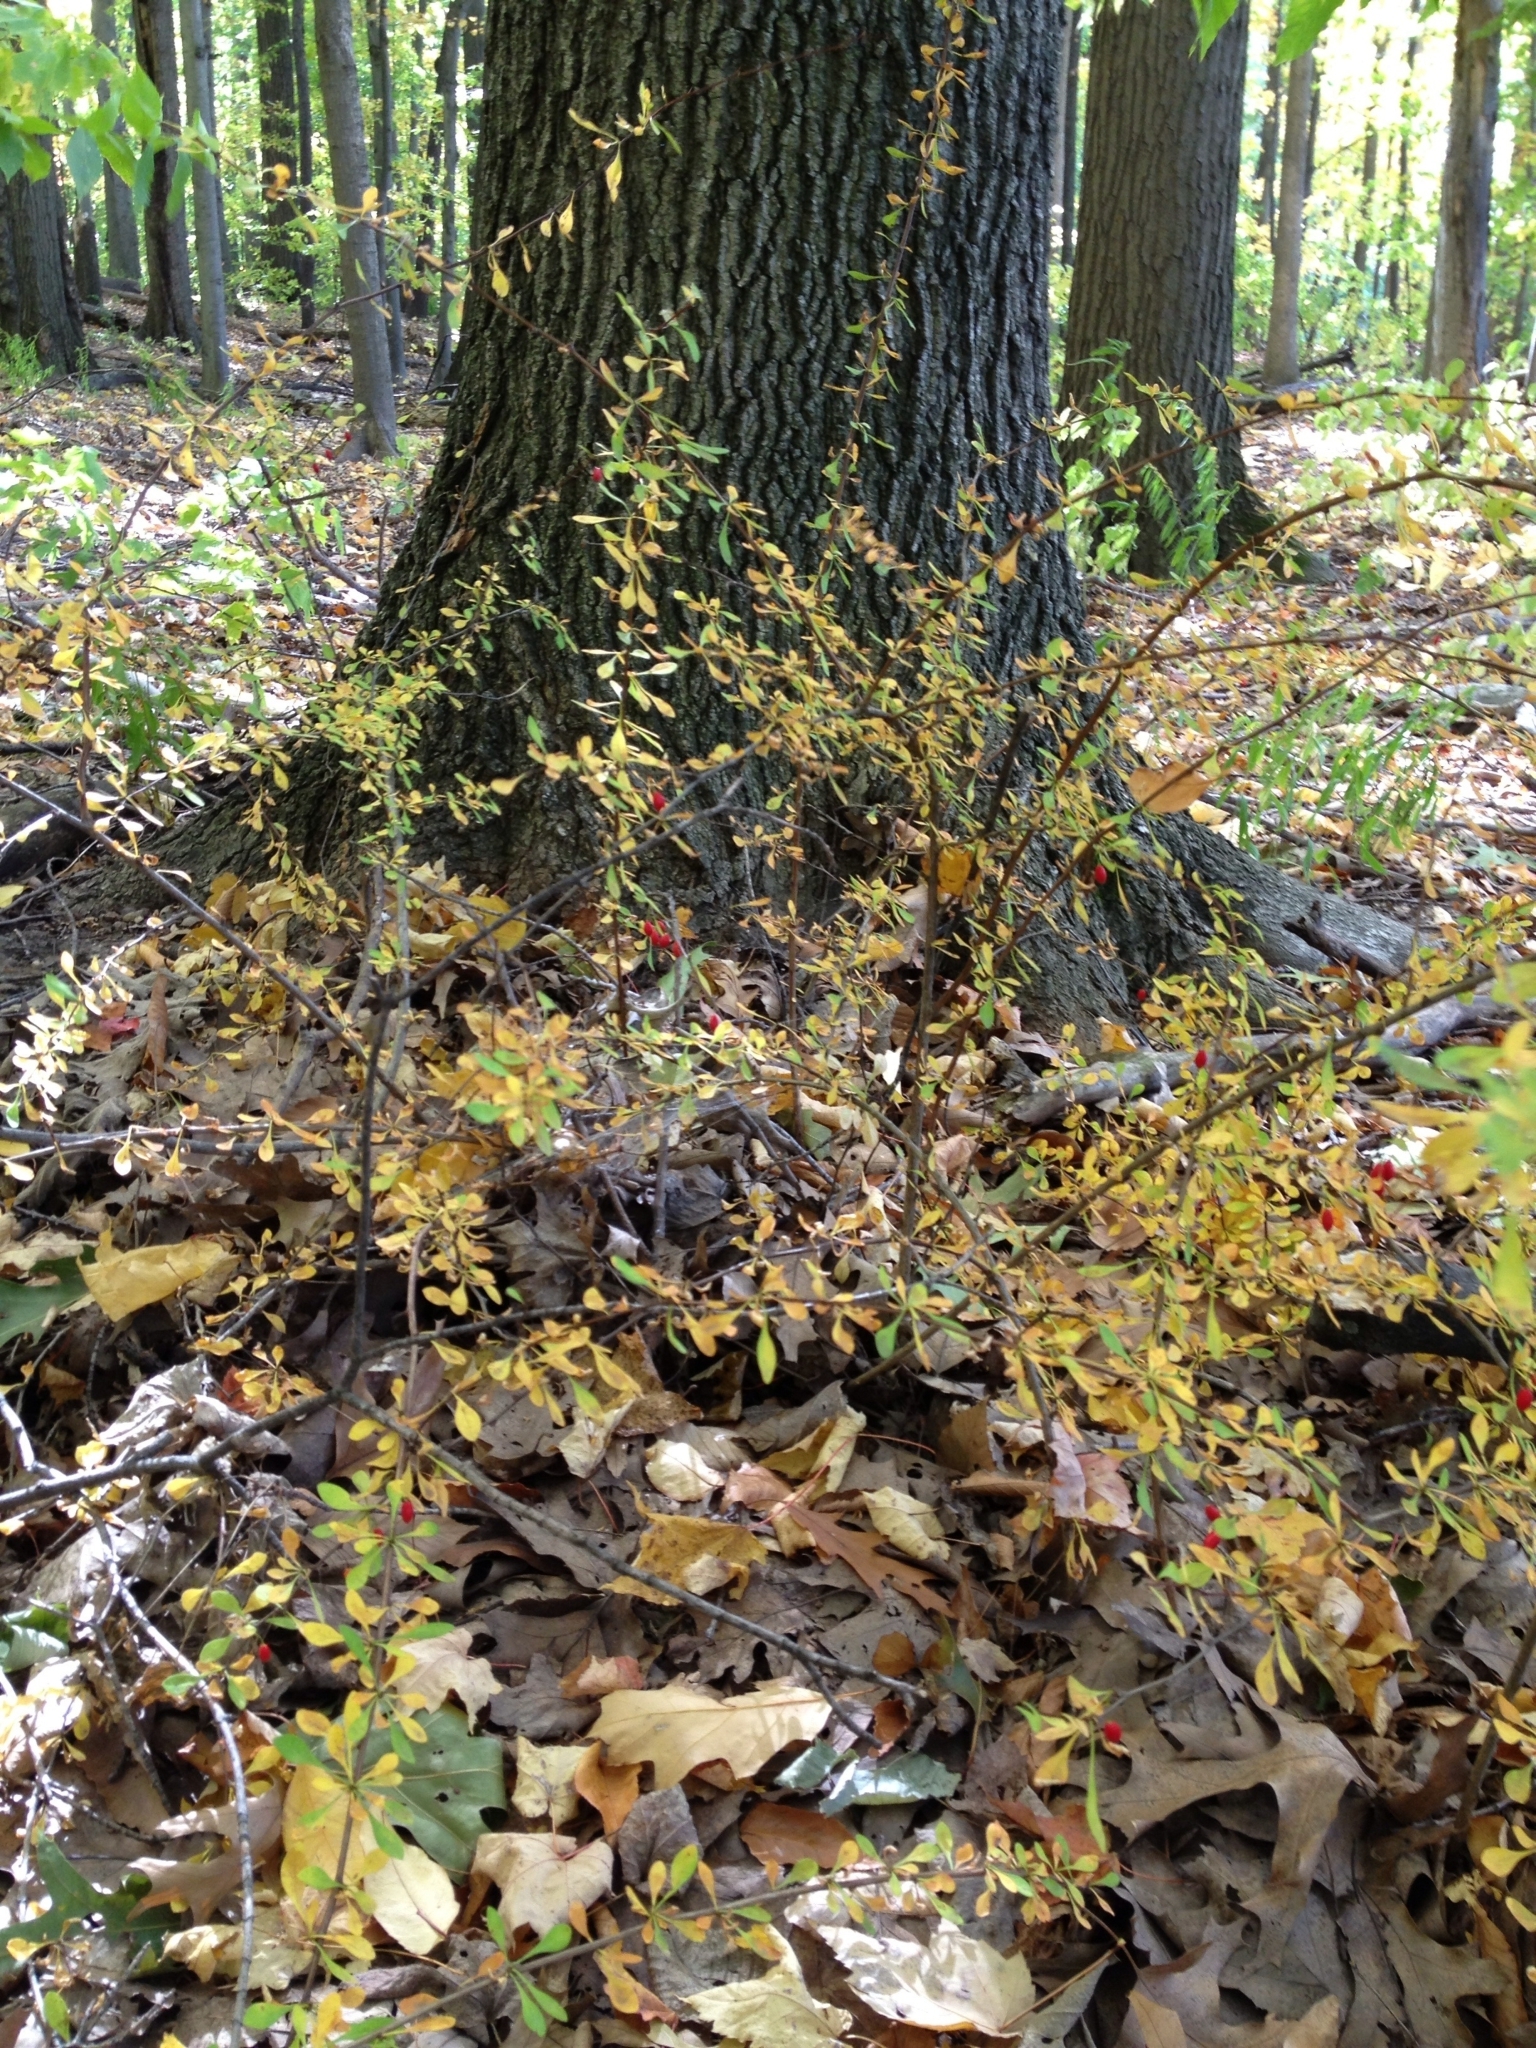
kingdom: Plantae
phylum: Tracheophyta
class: Magnoliopsida
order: Ranunculales
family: Berberidaceae
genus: Berberis
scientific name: Berberis thunbergii
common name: Japanese barberry
